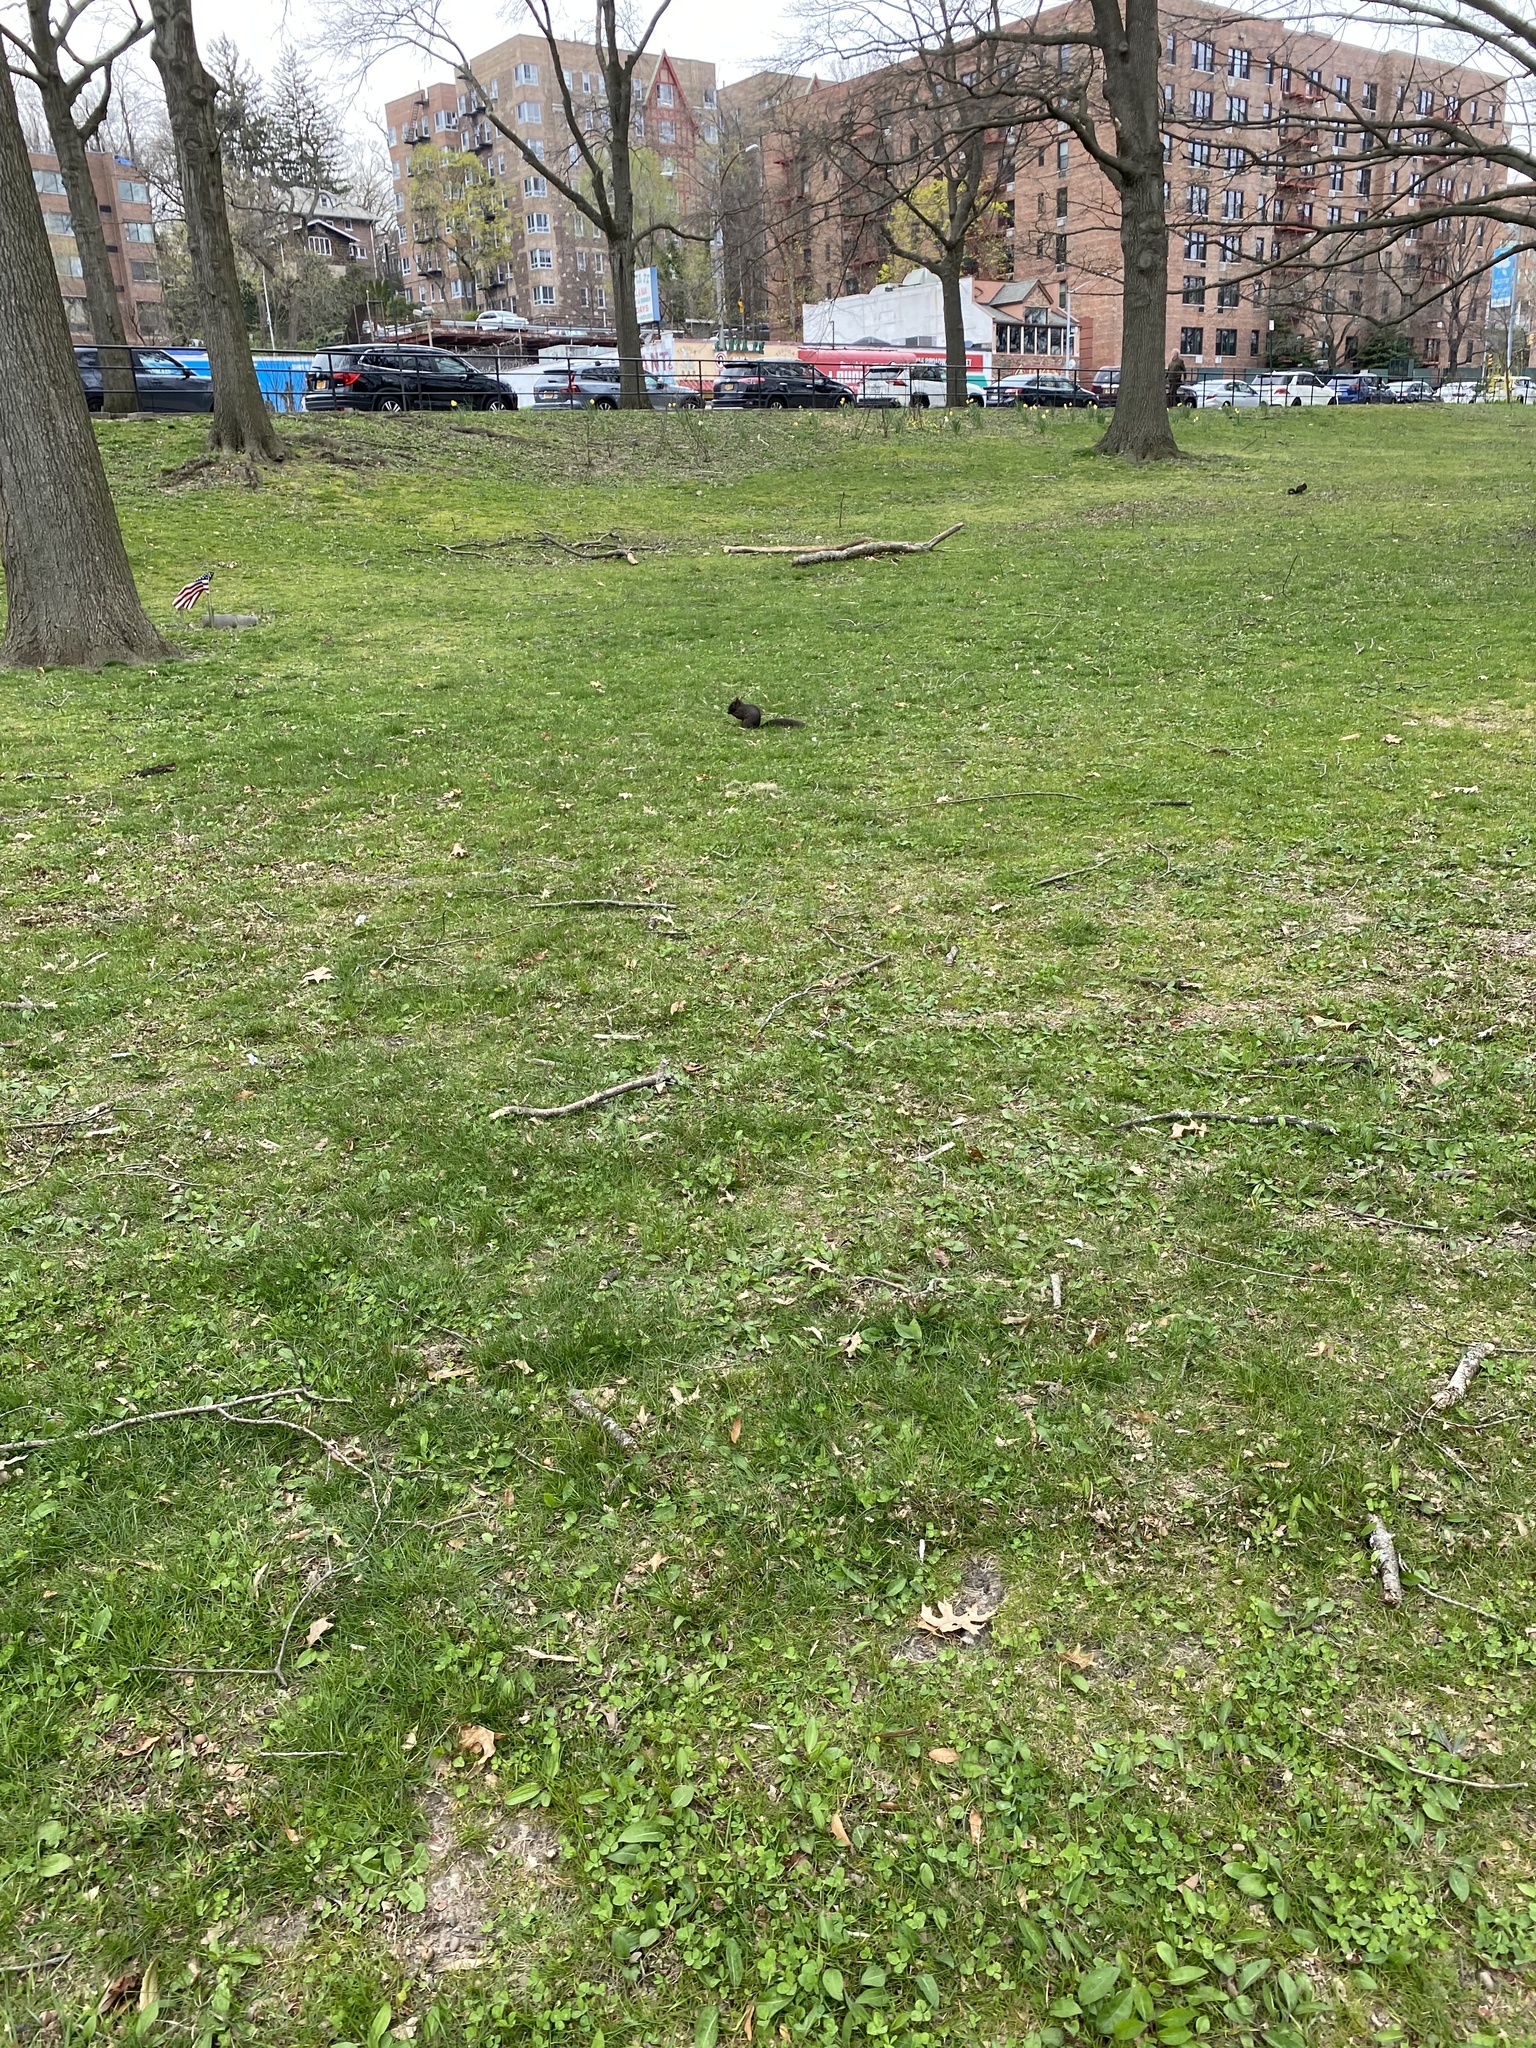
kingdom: Animalia
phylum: Chordata
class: Mammalia
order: Rodentia
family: Sciuridae
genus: Sciurus
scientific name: Sciurus carolinensis
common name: Eastern gray squirrel
